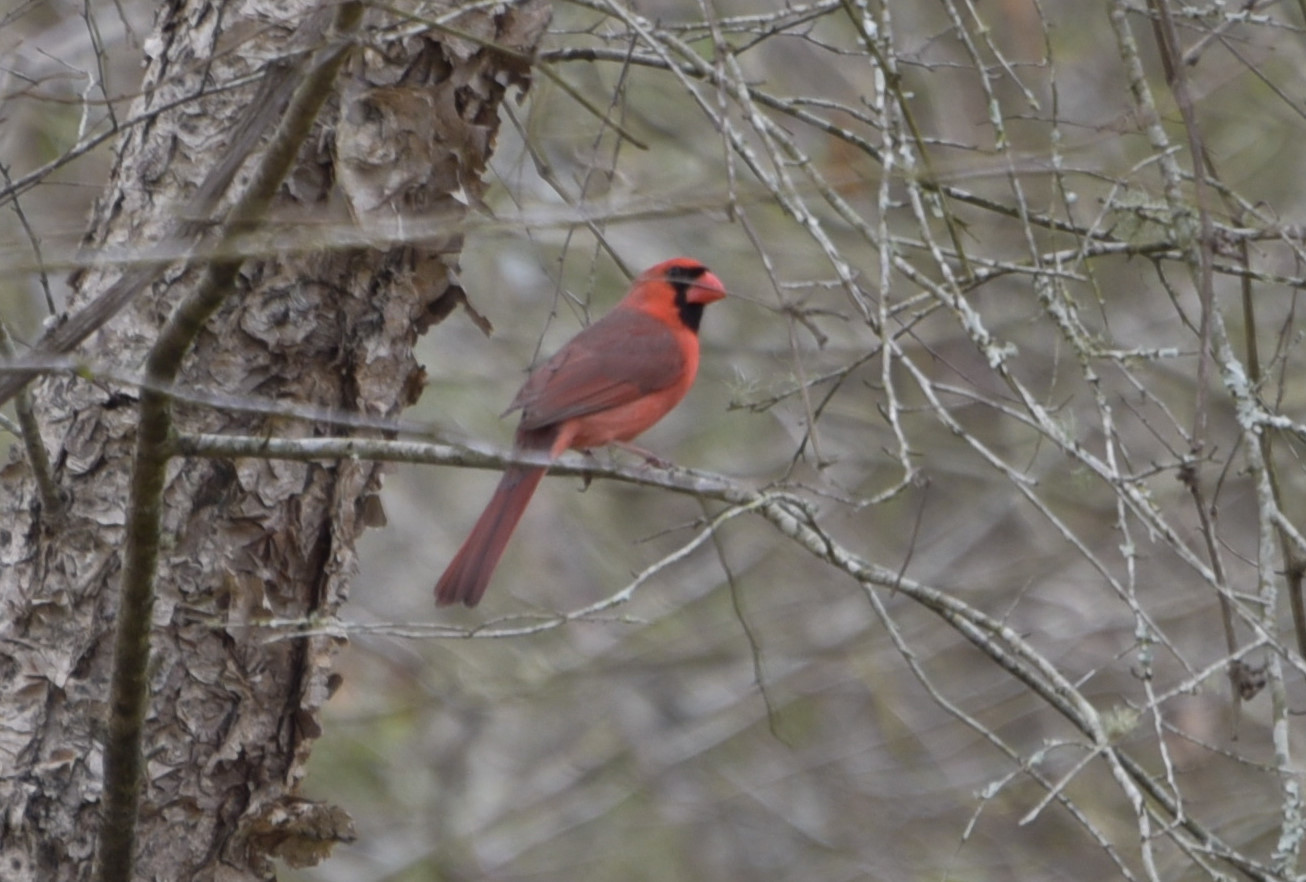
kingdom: Animalia
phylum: Chordata
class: Aves
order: Passeriformes
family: Cardinalidae
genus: Cardinalis
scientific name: Cardinalis cardinalis
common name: Northern cardinal
